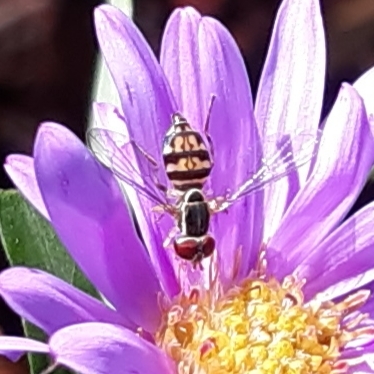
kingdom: Animalia
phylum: Arthropoda
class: Insecta
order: Diptera
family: Syrphidae
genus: Toxomerus
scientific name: Toxomerus geminatus
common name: Eastern calligrapher
